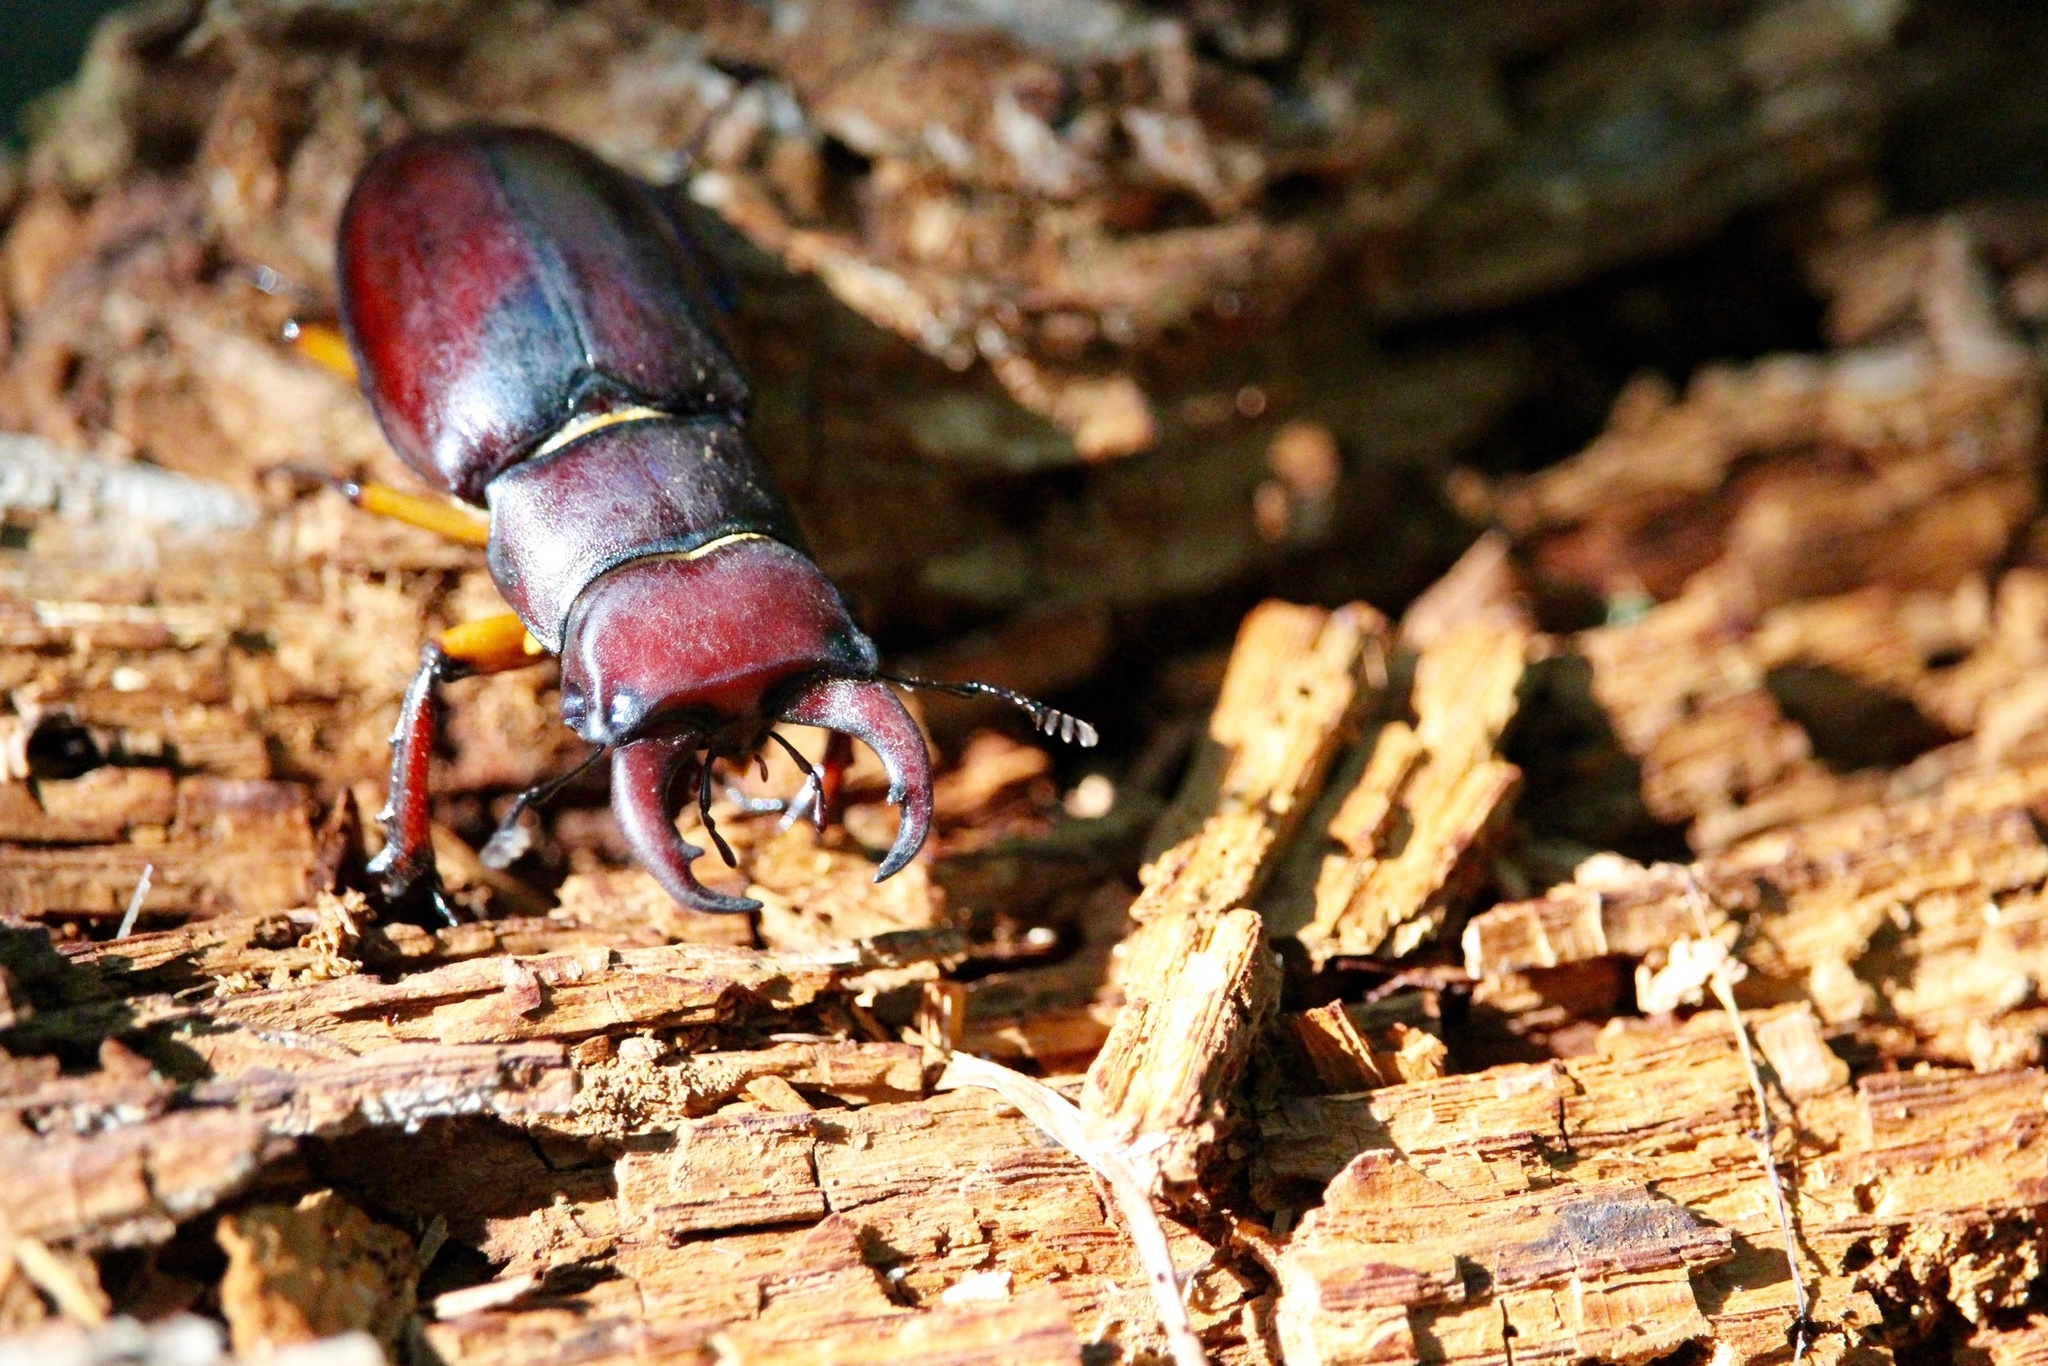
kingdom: Animalia
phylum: Arthropoda
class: Insecta
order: Coleoptera
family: Lucanidae
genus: Lucanus
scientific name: Lucanus capreolus
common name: Stag beetle
